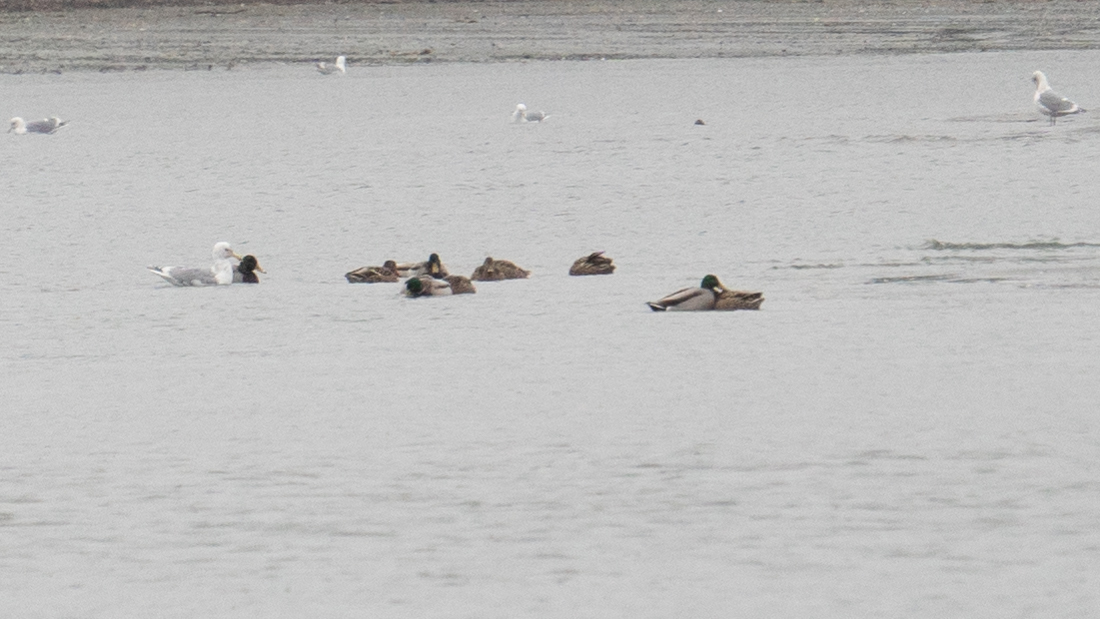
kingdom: Animalia
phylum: Chordata
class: Aves
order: Anseriformes
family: Anatidae
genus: Anas
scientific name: Anas platyrhynchos
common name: Mallard
